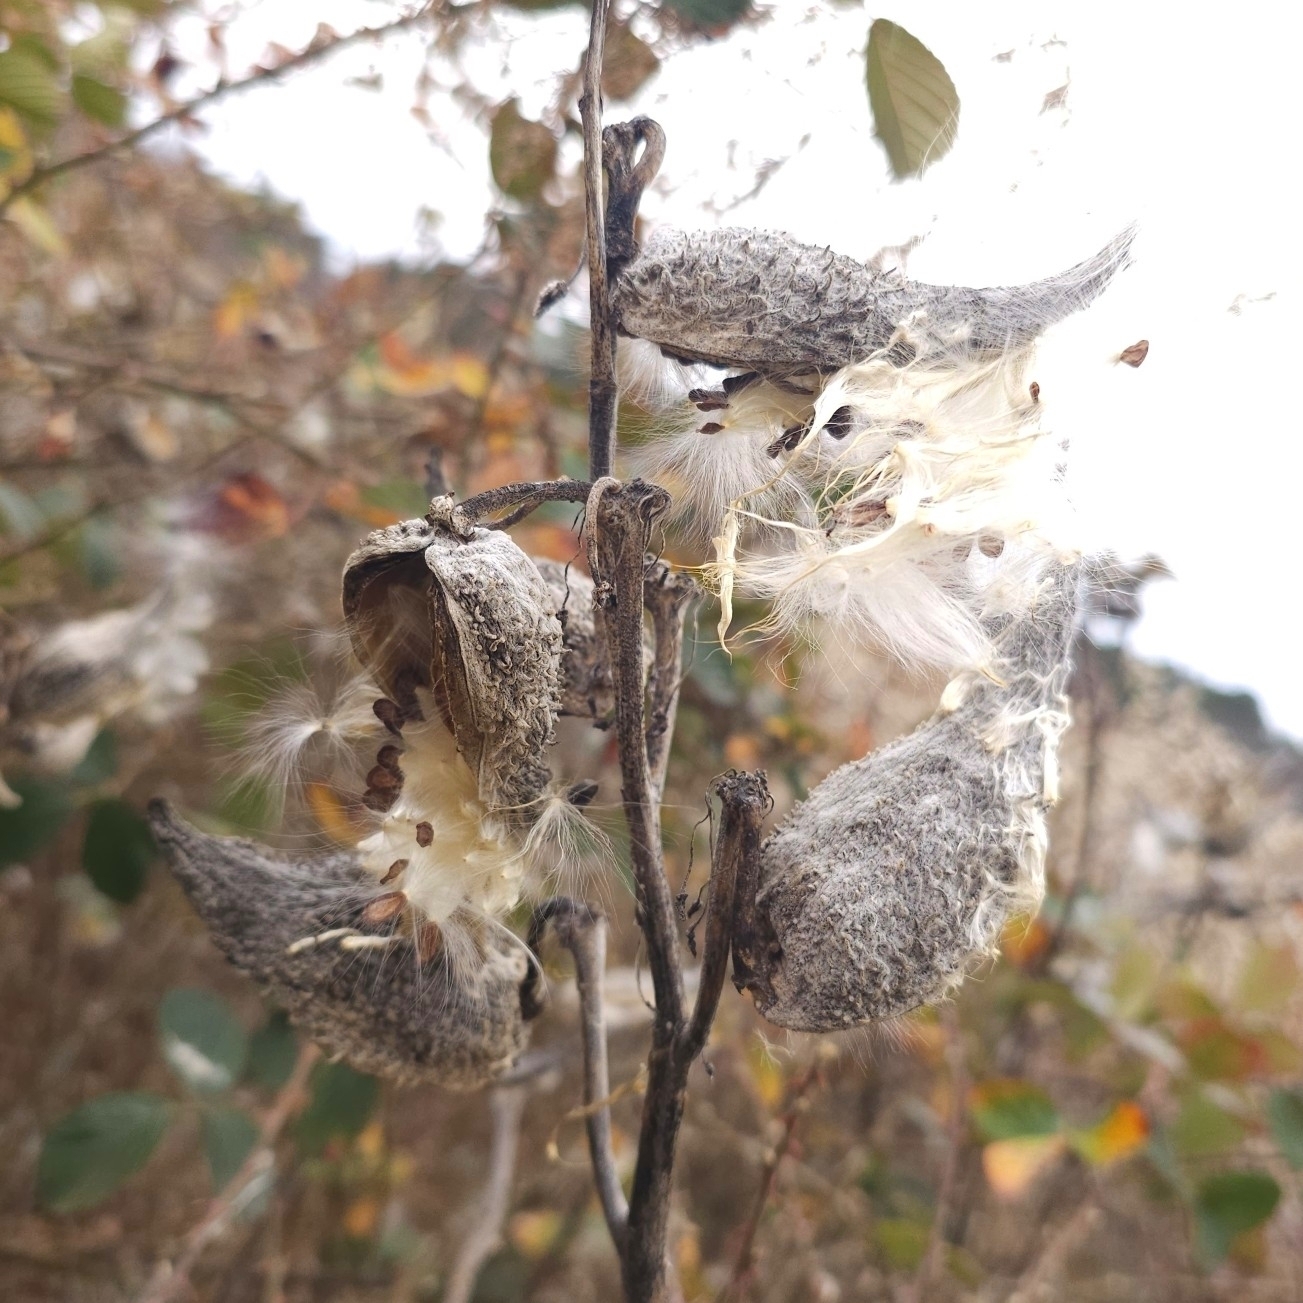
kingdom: Plantae
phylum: Tracheophyta
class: Magnoliopsida
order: Gentianales
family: Apocynaceae
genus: Asclepias
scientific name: Asclepias syriaca
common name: Common milkweed
